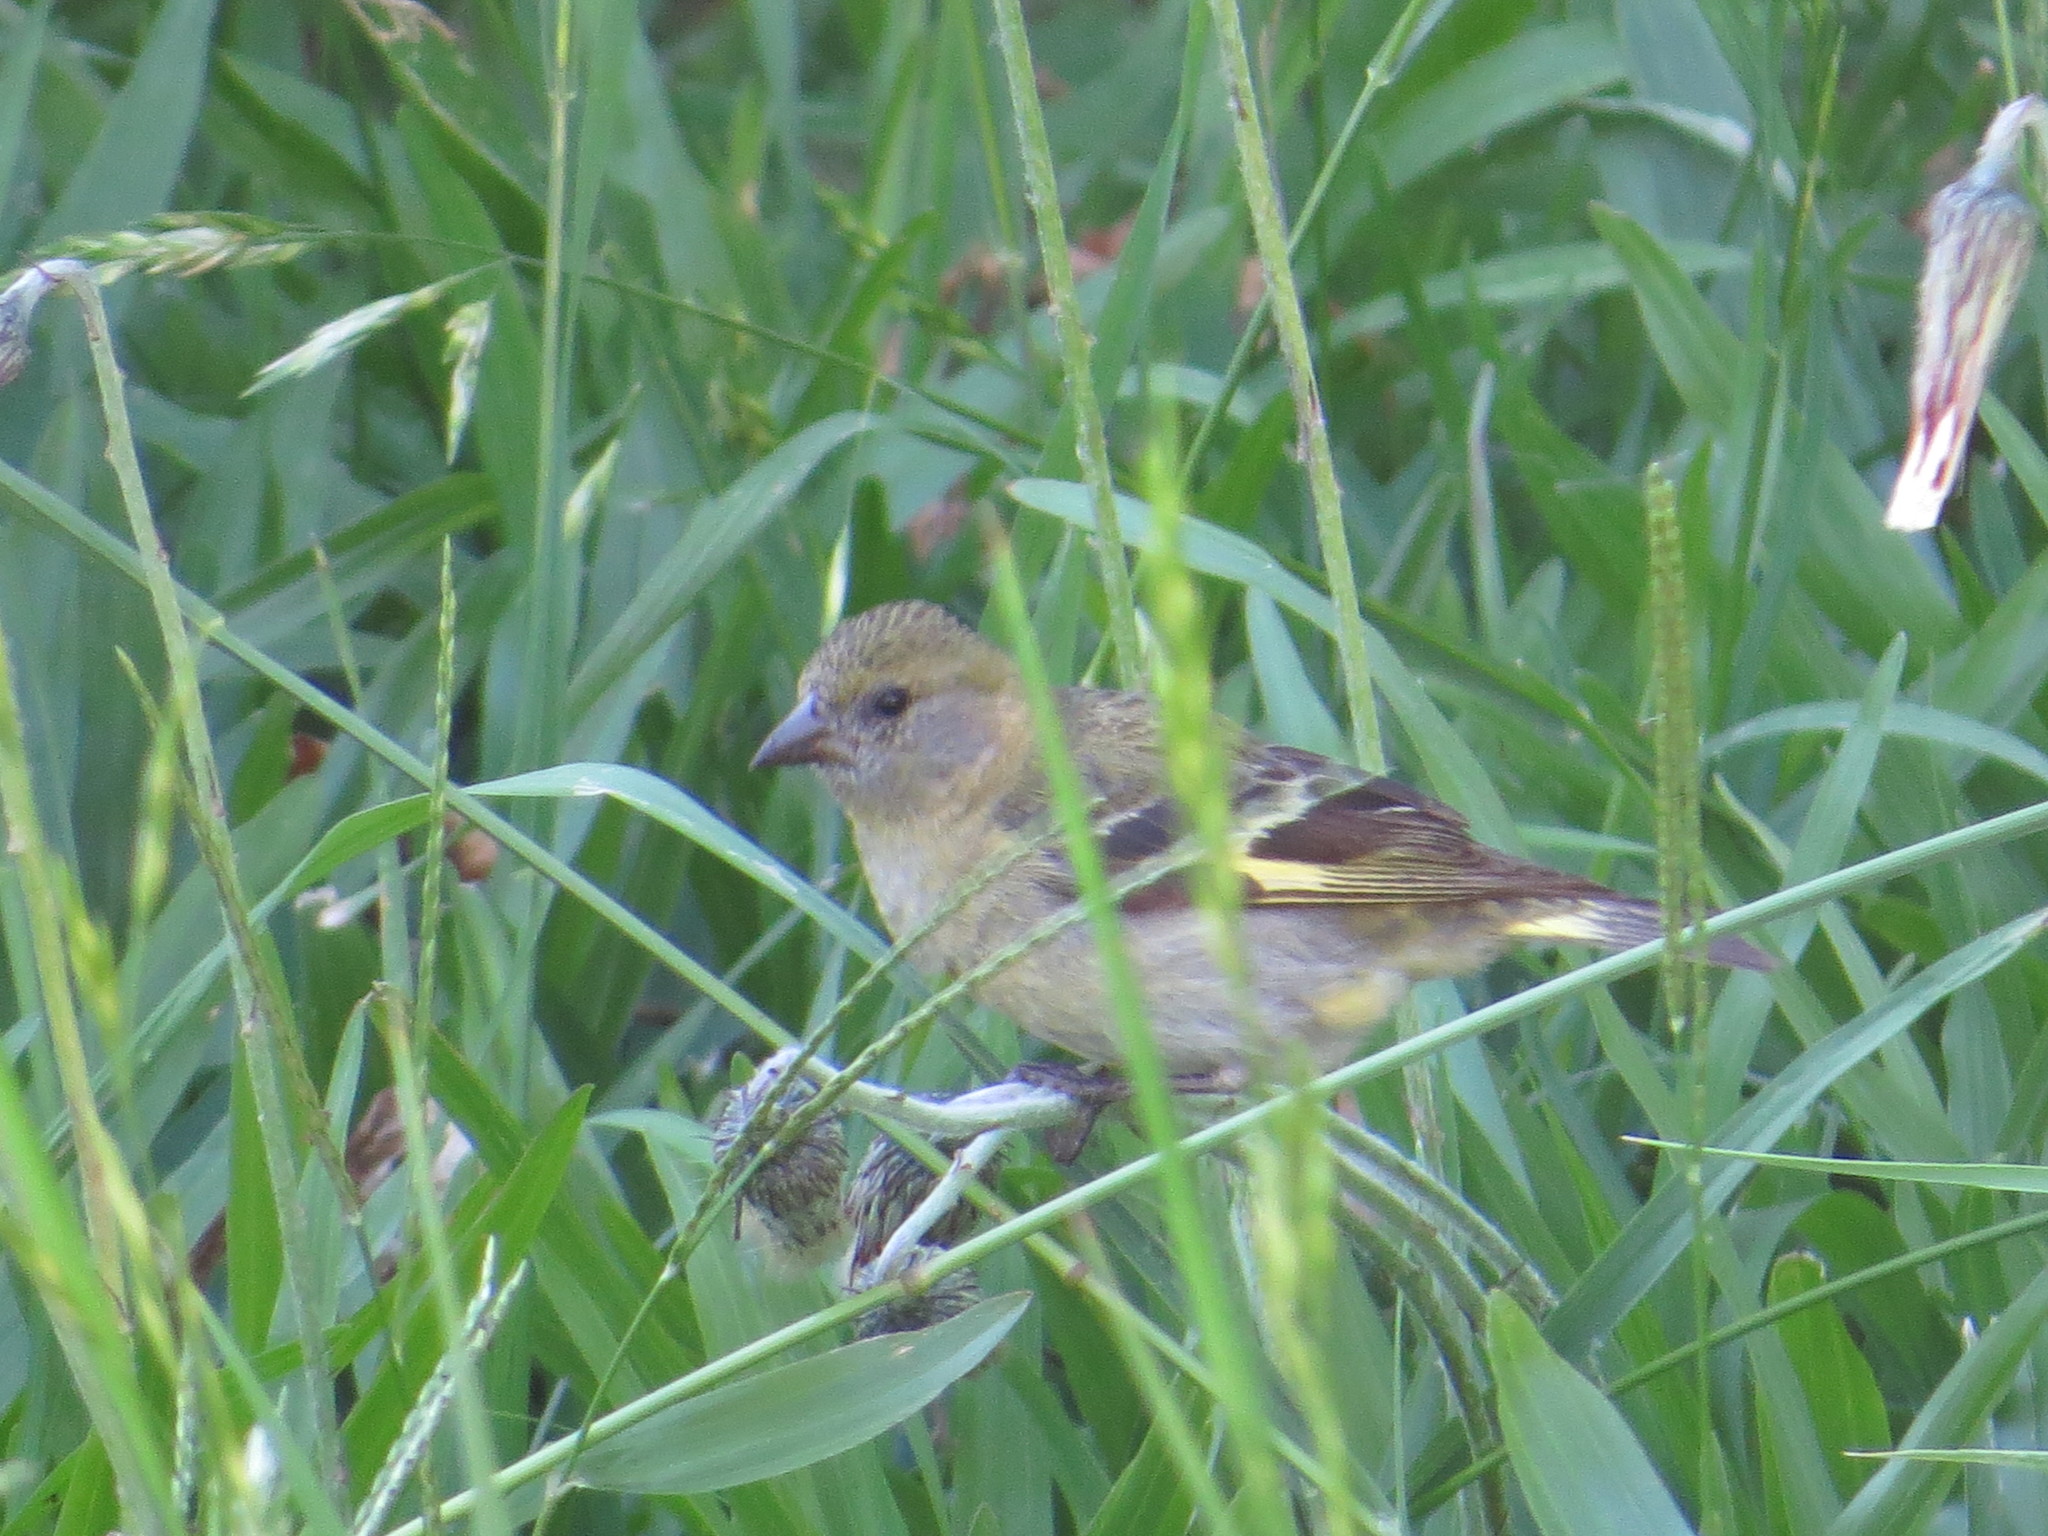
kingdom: Animalia
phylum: Chordata
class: Aves
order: Passeriformes
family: Fringillidae
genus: Spinus
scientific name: Spinus magellanicus
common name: Hooded siskin
